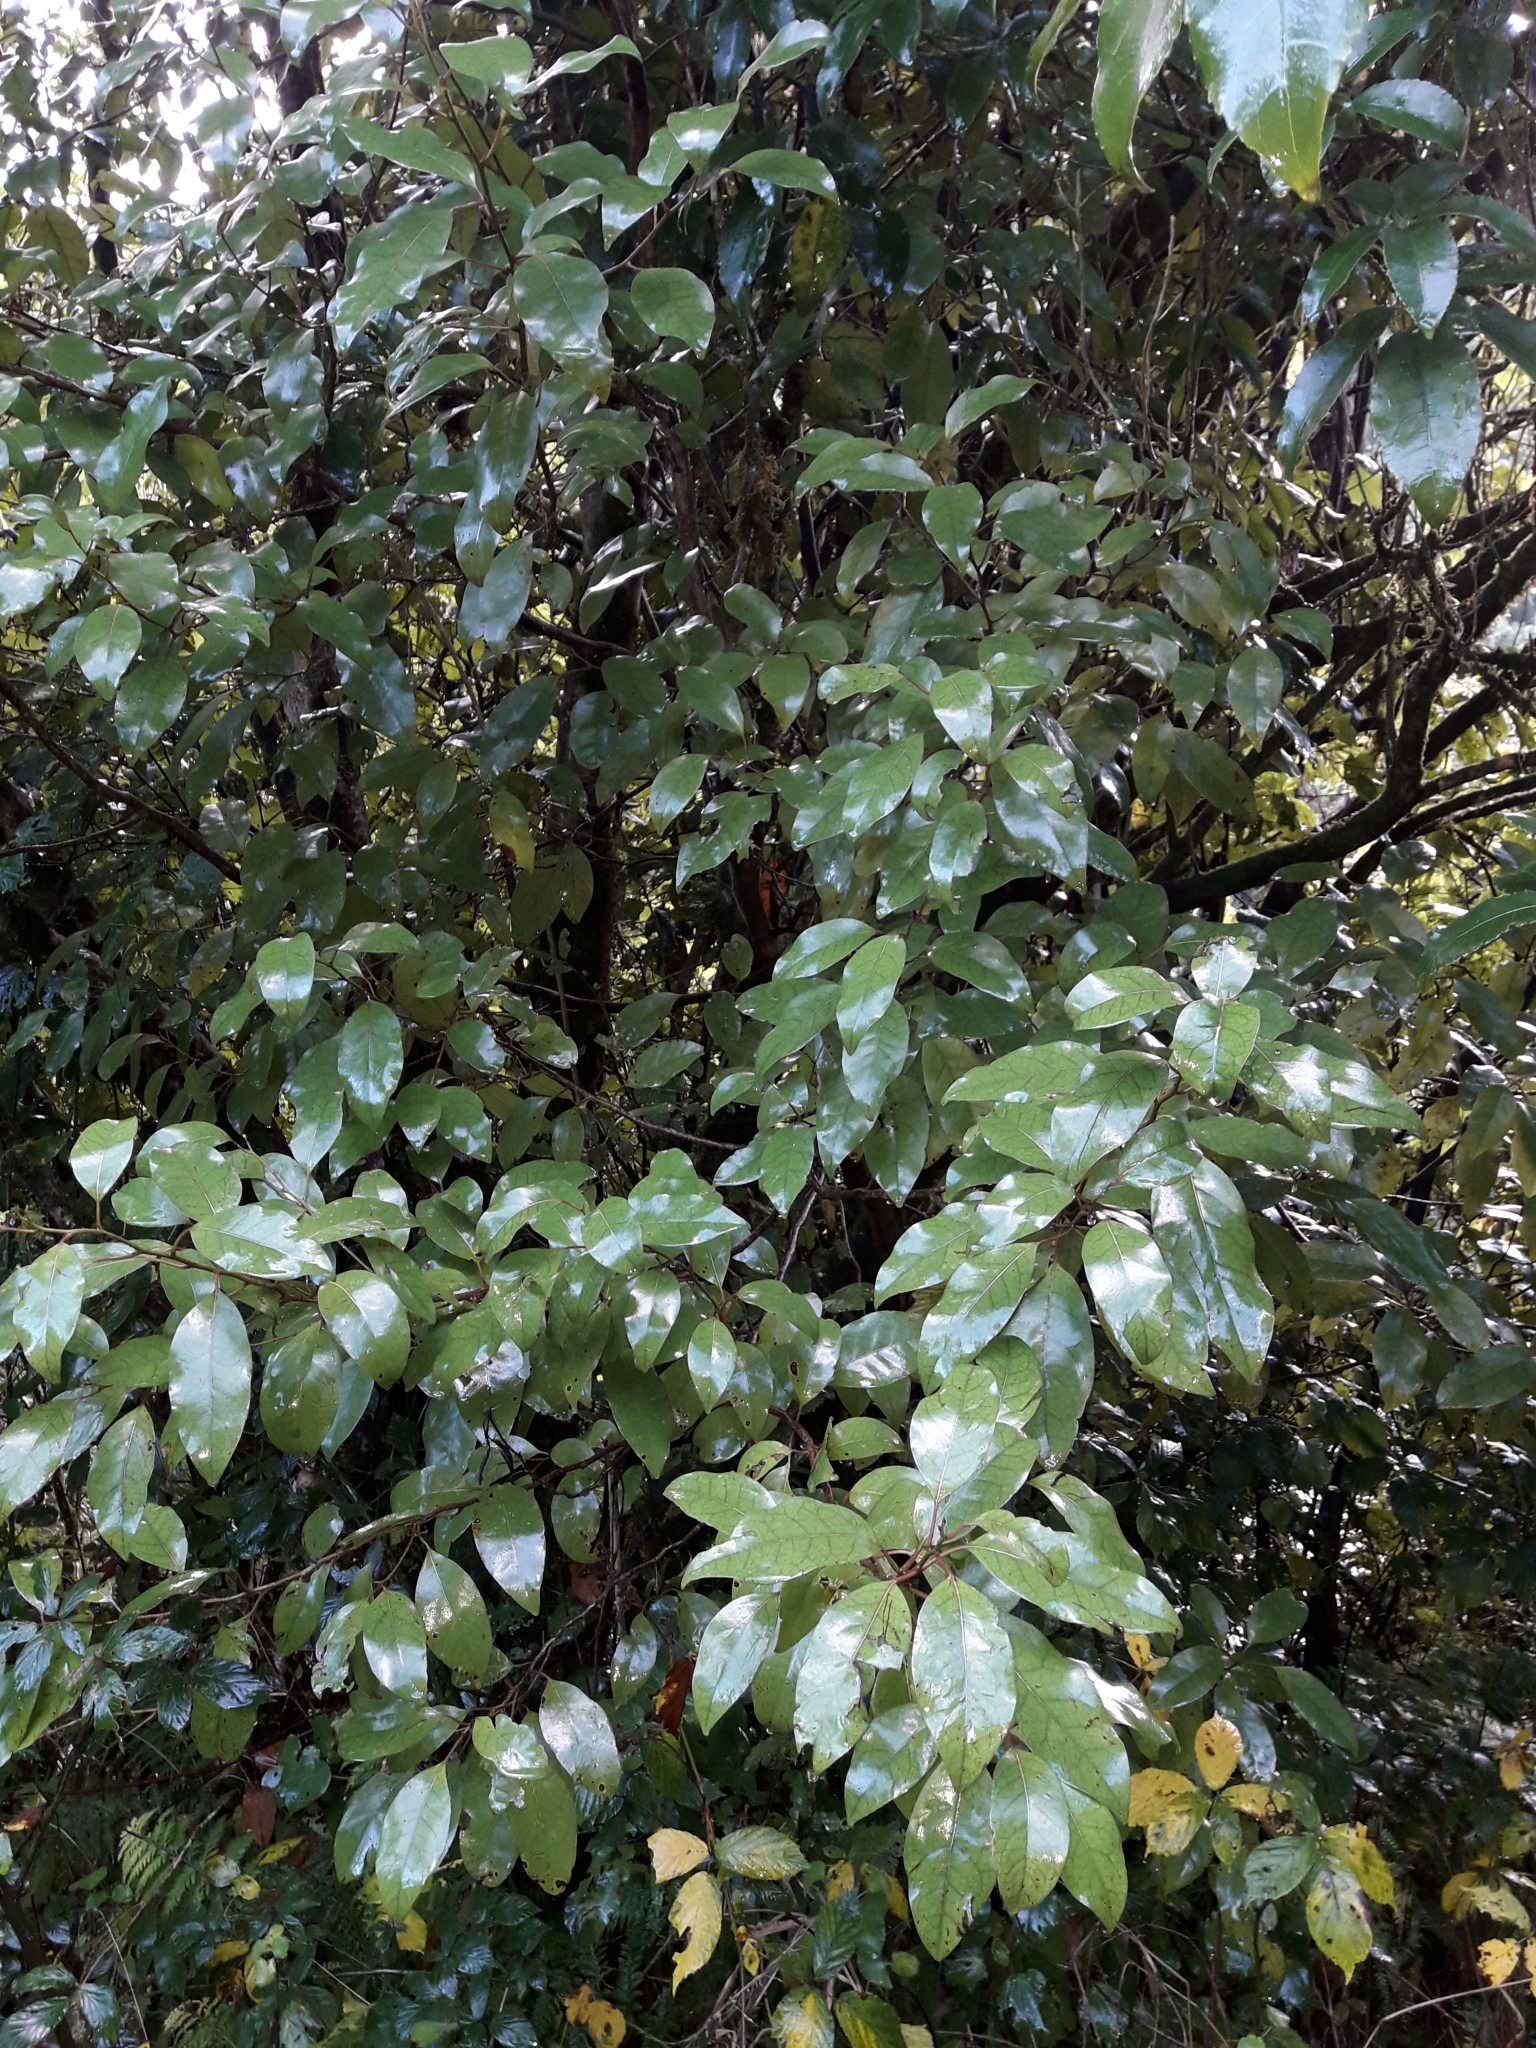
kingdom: Plantae
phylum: Tracheophyta
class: Magnoliopsida
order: Laurales
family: Lauraceae
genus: Litsea
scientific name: Litsea calicaris
